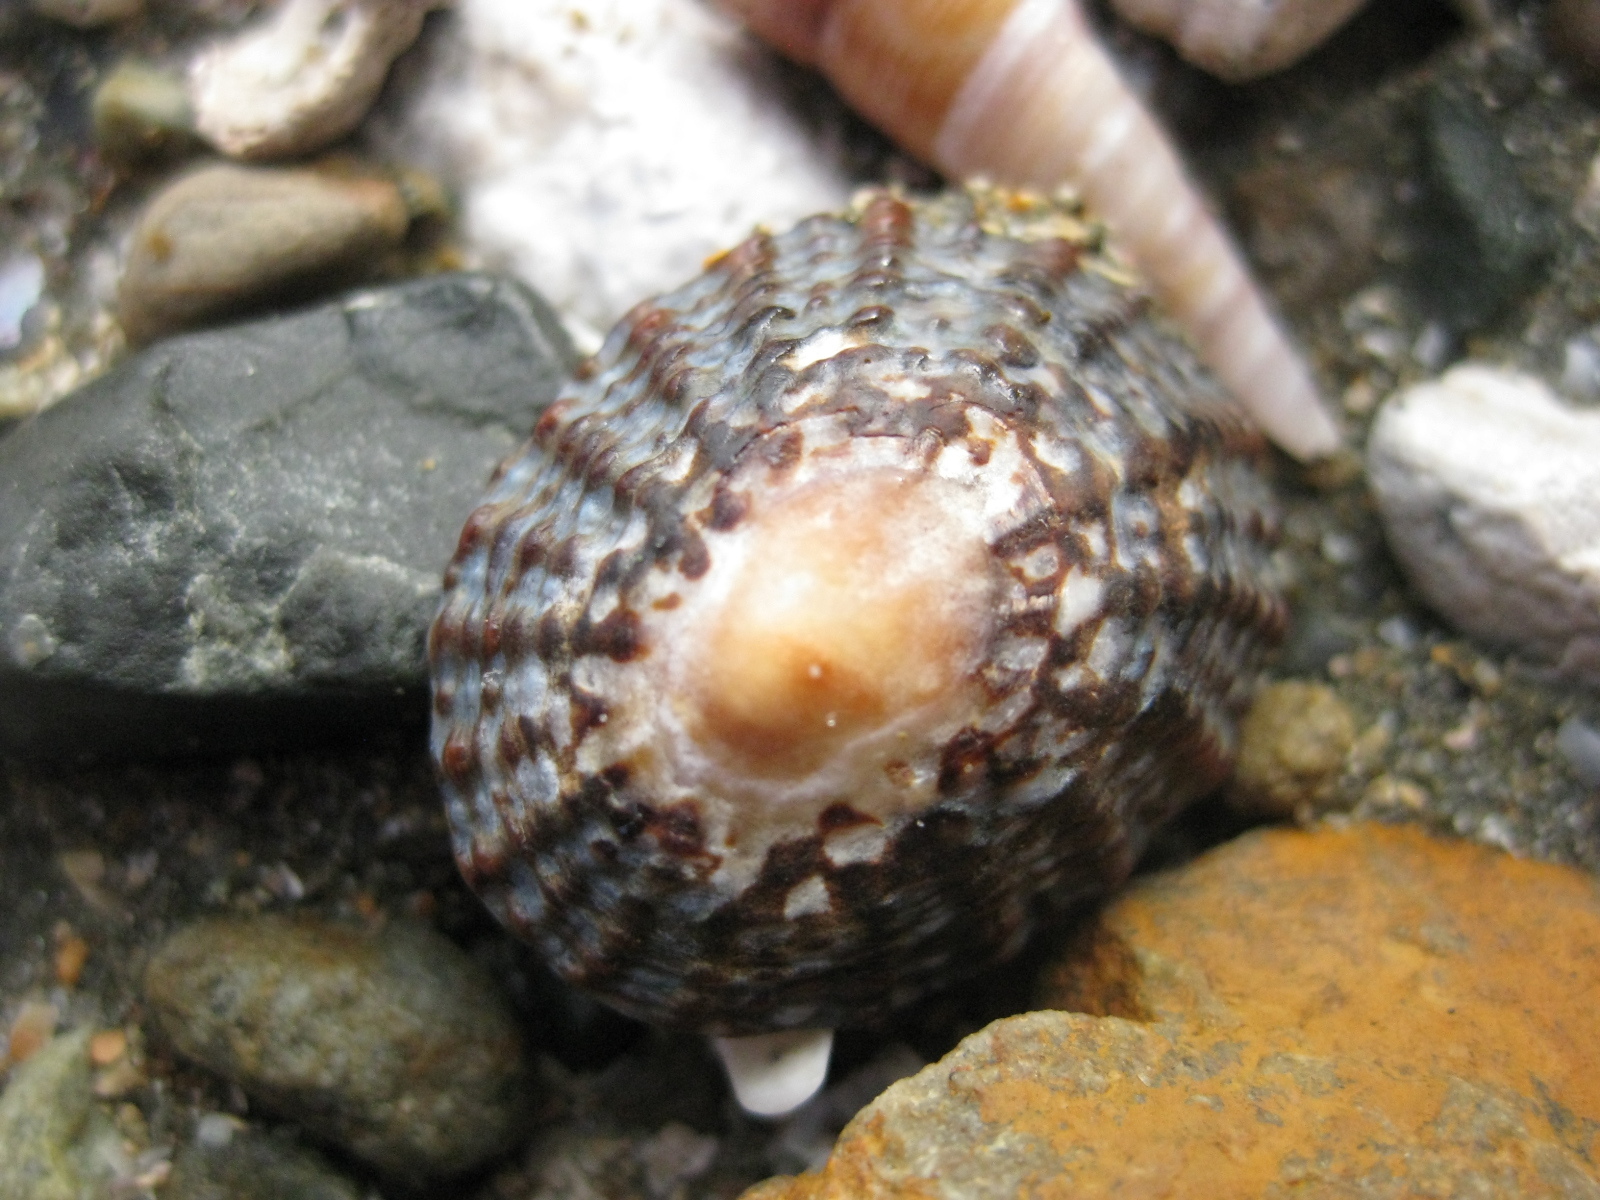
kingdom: Animalia
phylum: Mollusca
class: Gastropoda
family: Nacellidae
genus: Cellana
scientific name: Cellana denticulata
